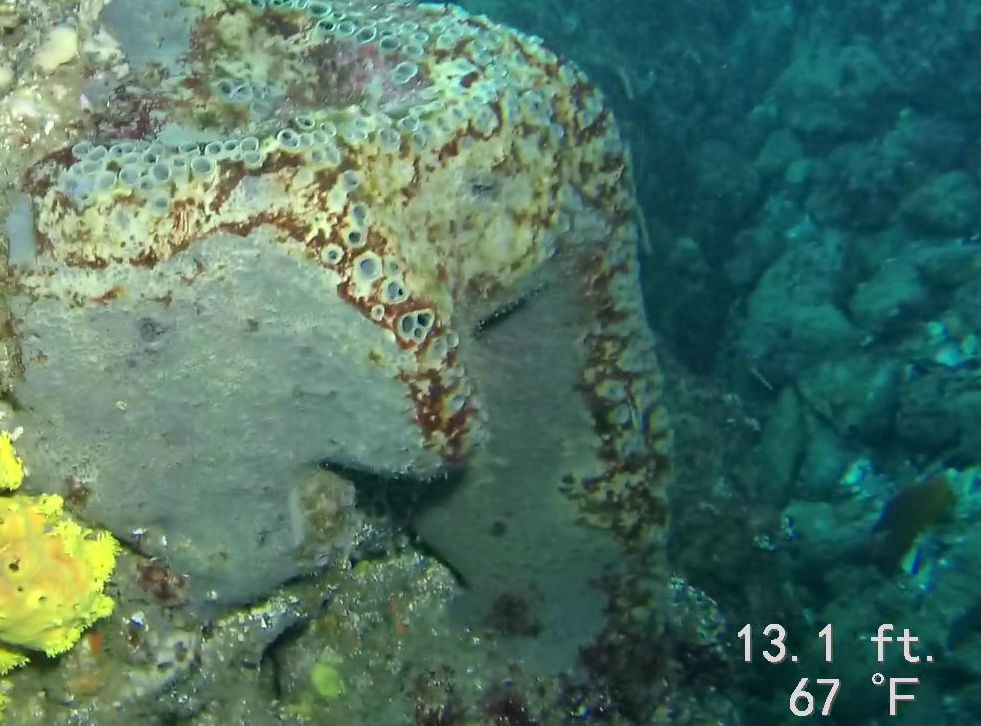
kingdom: Animalia
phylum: Porifera
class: Demospongiae
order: Clionaida
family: Clionaidae
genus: Spheciospongia
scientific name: Spheciospongia confoederata
